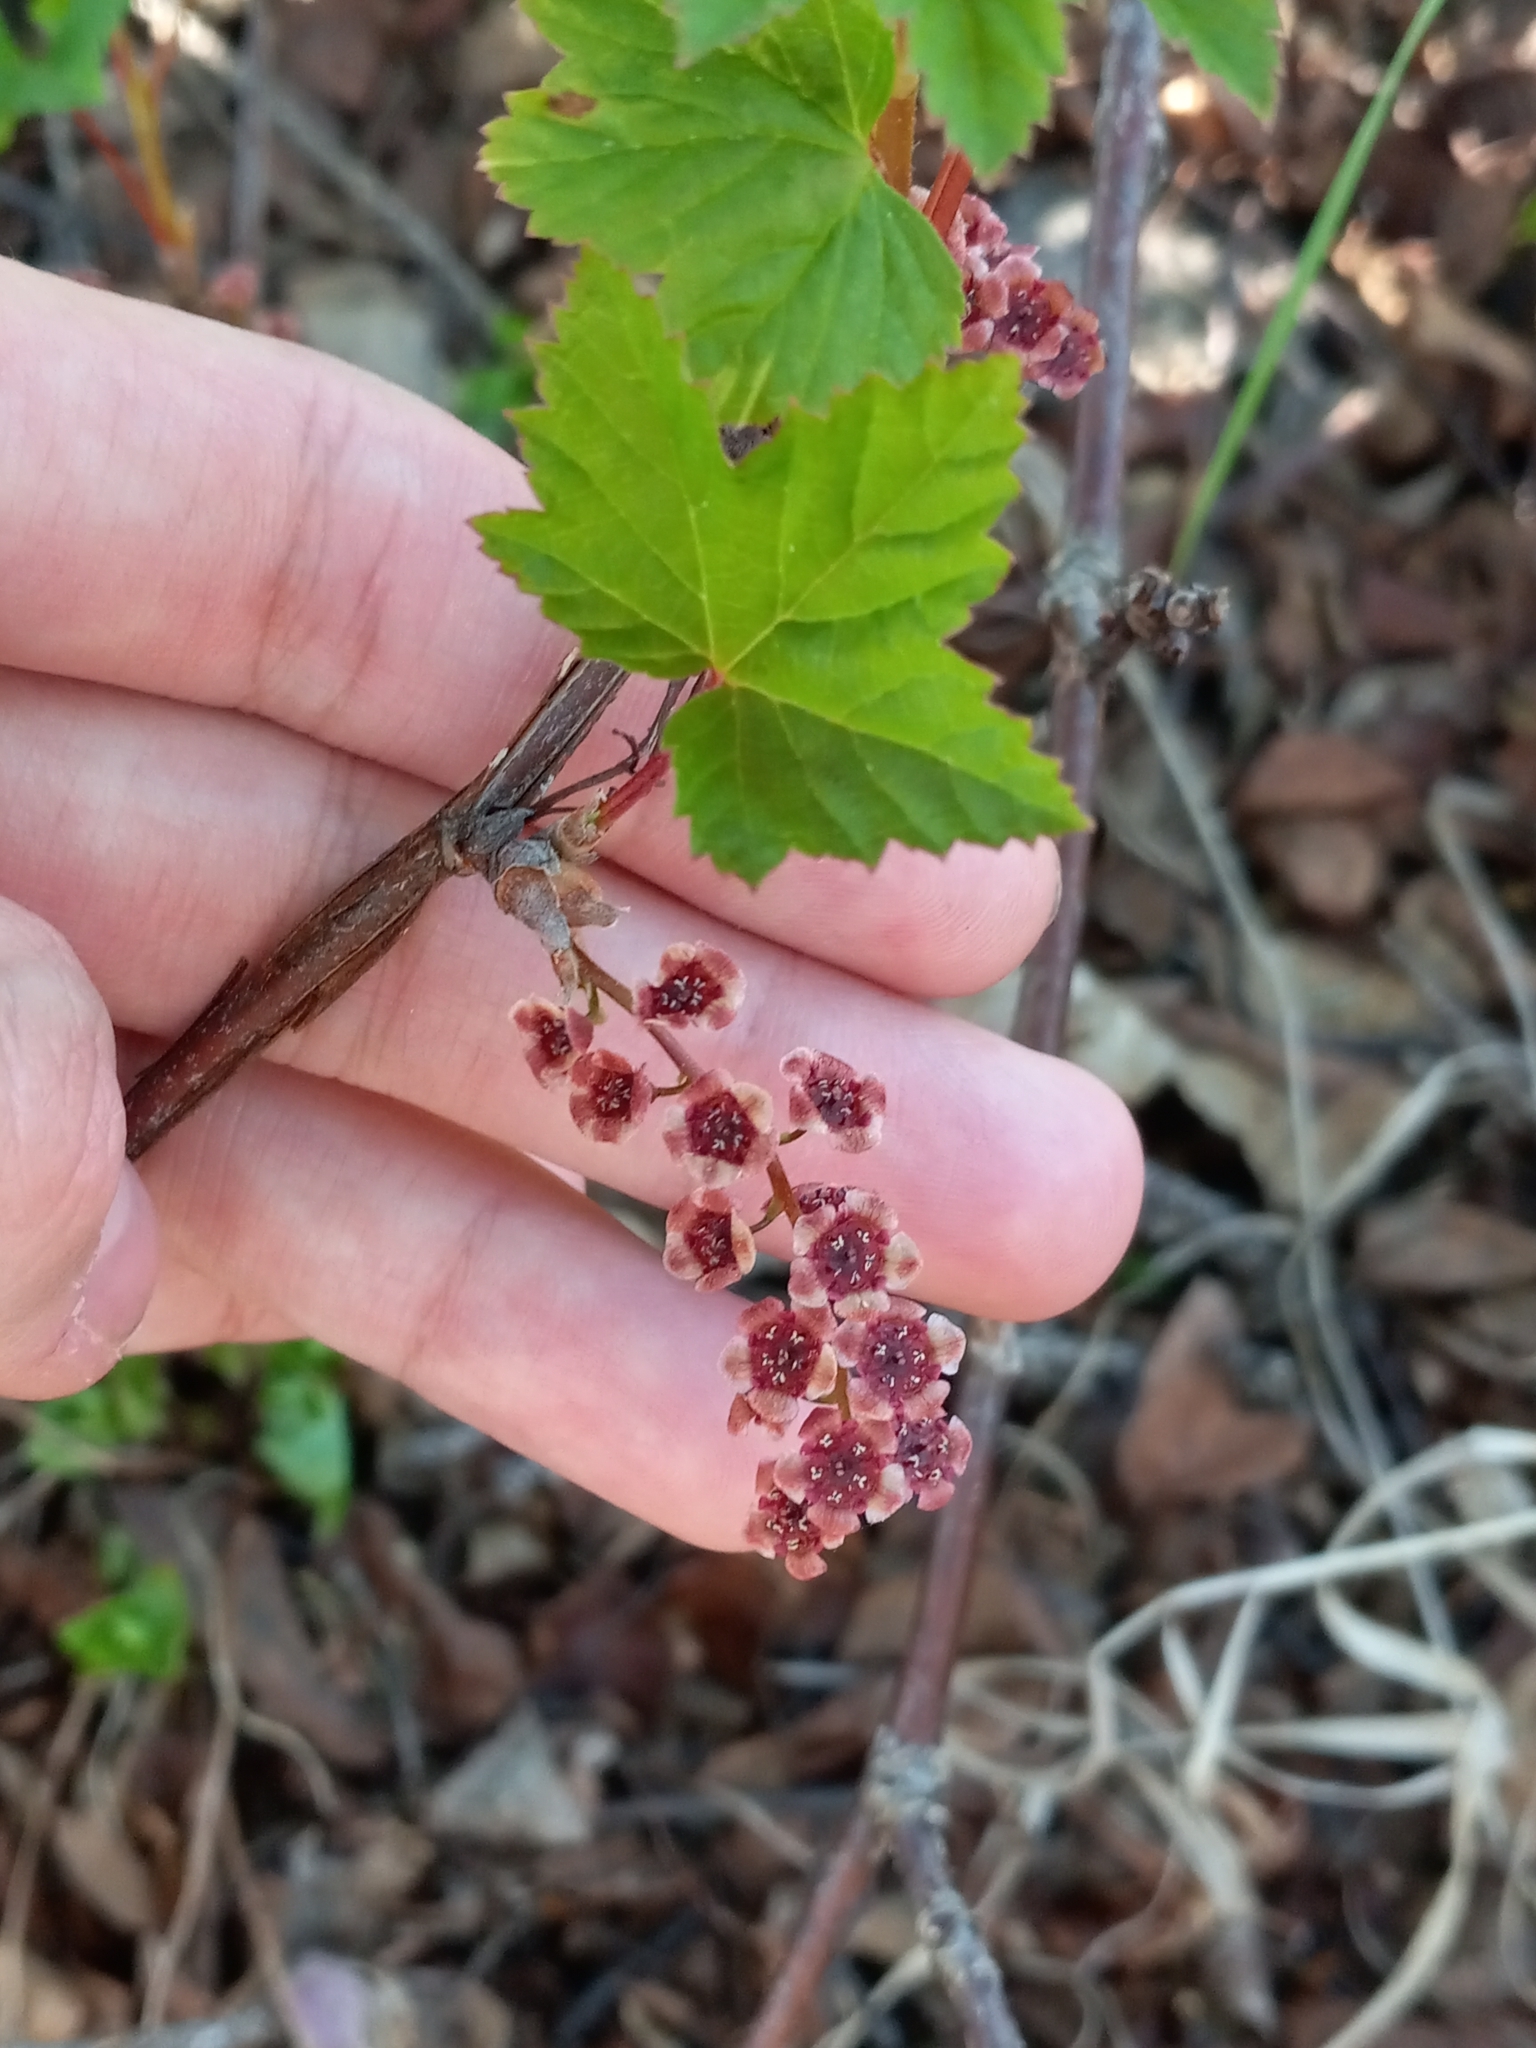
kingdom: Plantae
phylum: Tracheophyta
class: Magnoliopsida
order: Saxifragales
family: Grossulariaceae
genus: Ribes
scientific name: Ribes triste
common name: Swamp red currant
